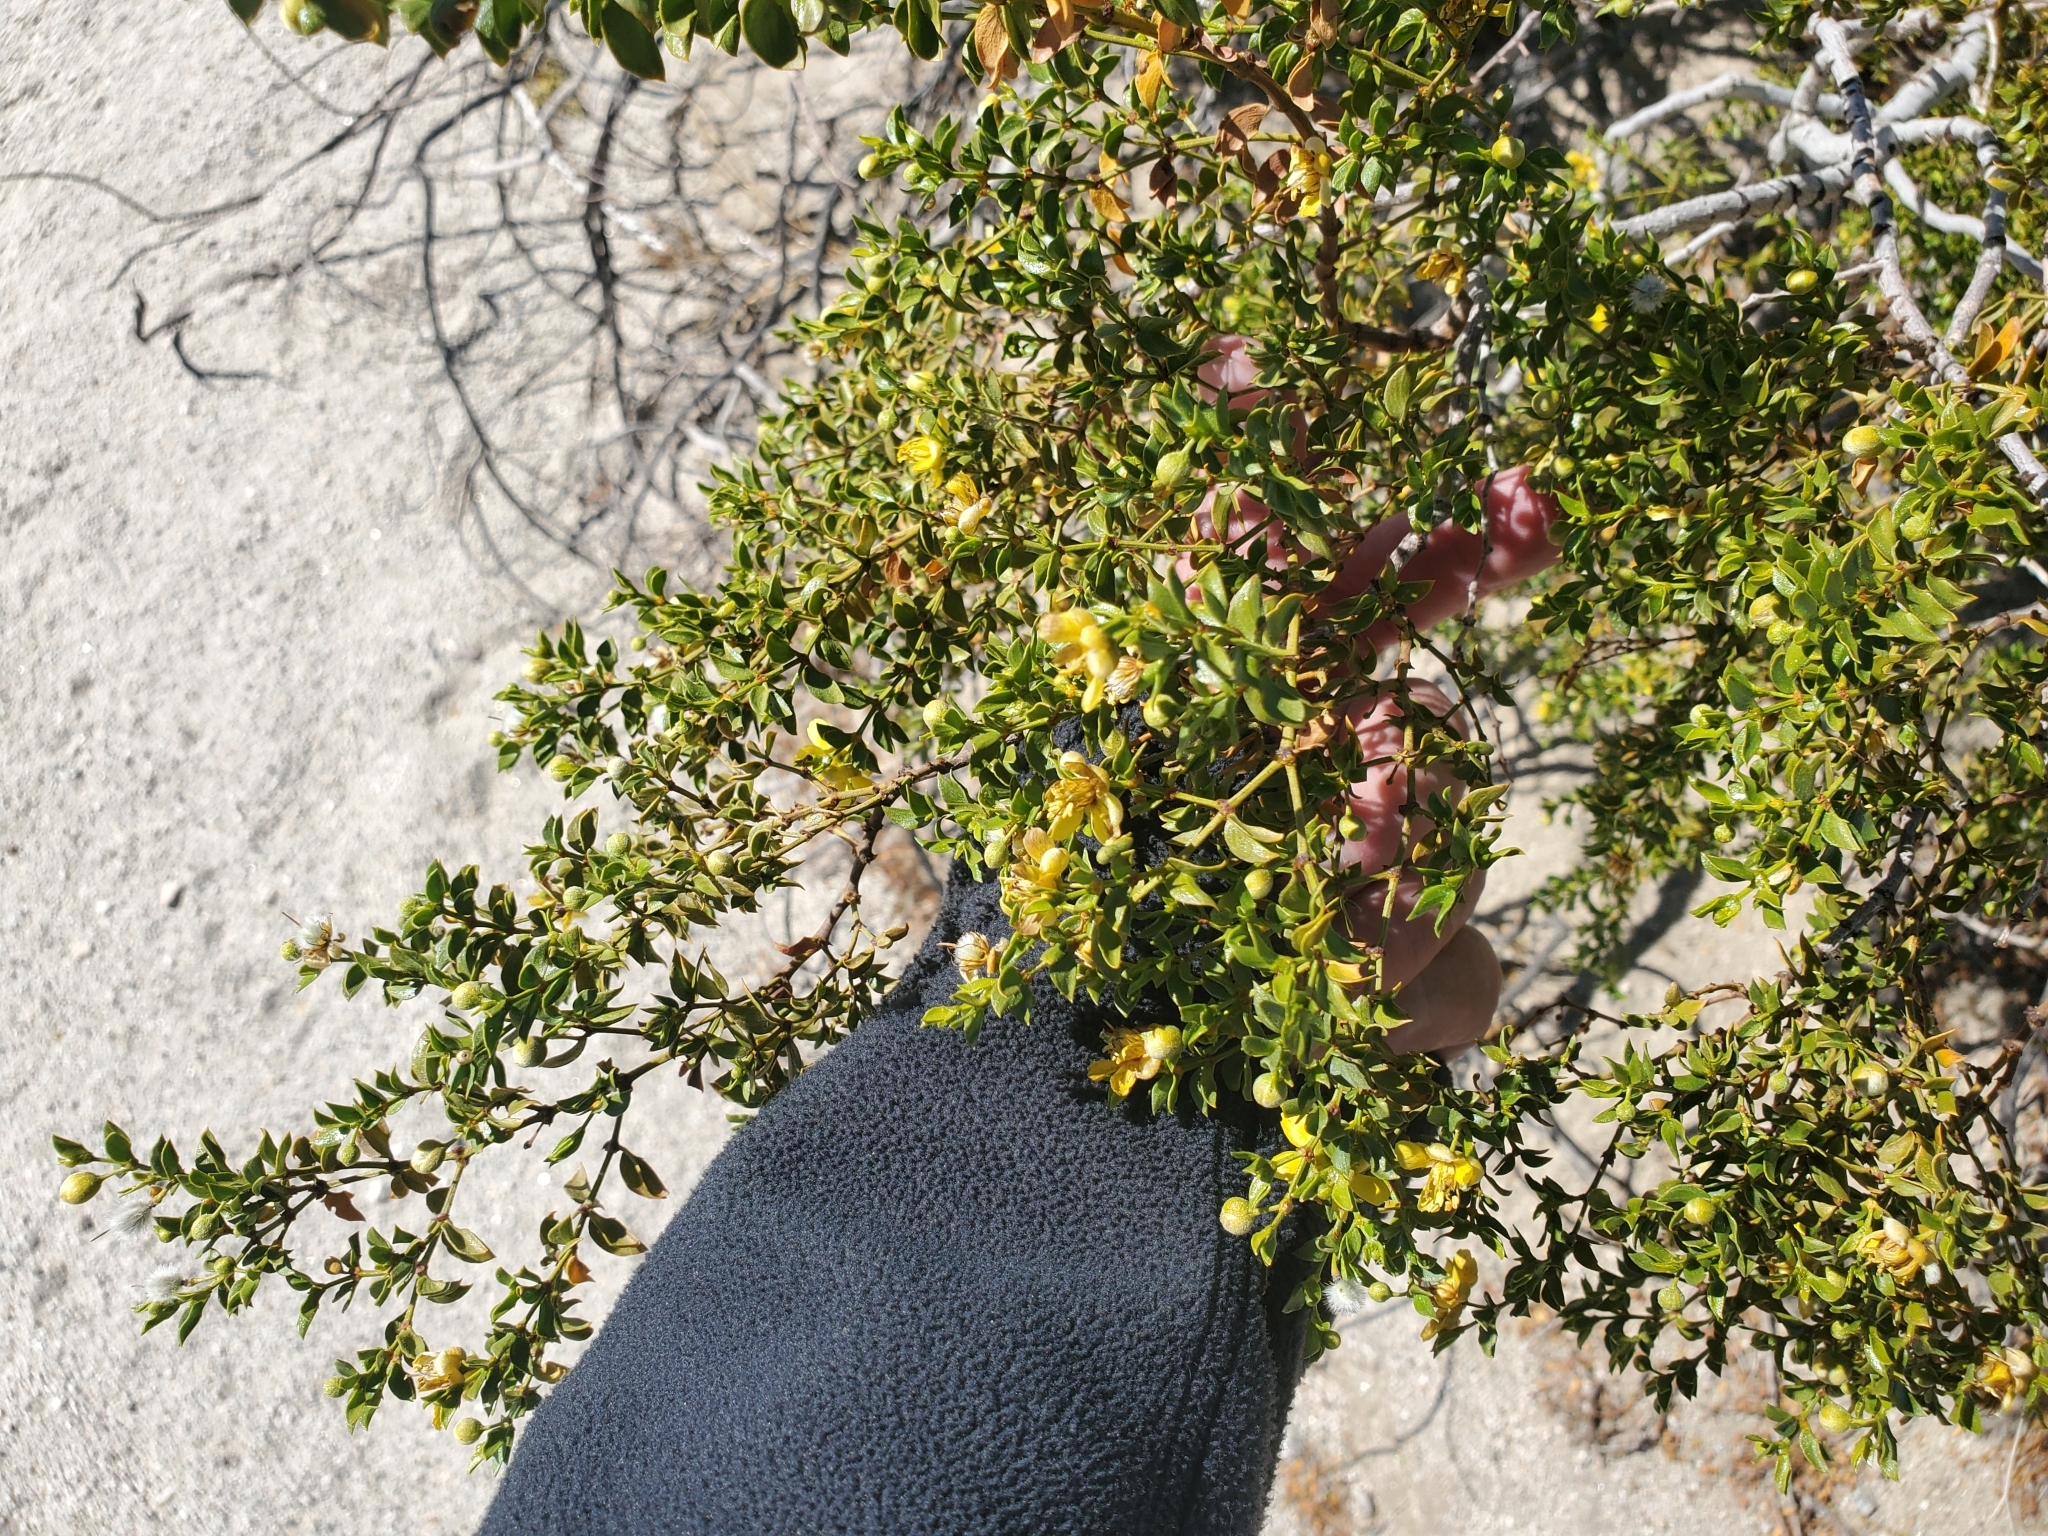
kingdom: Plantae
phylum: Tracheophyta
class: Magnoliopsida
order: Zygophyllales
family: Zygophyllaceae
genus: Larrea
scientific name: Larrea tridentata
